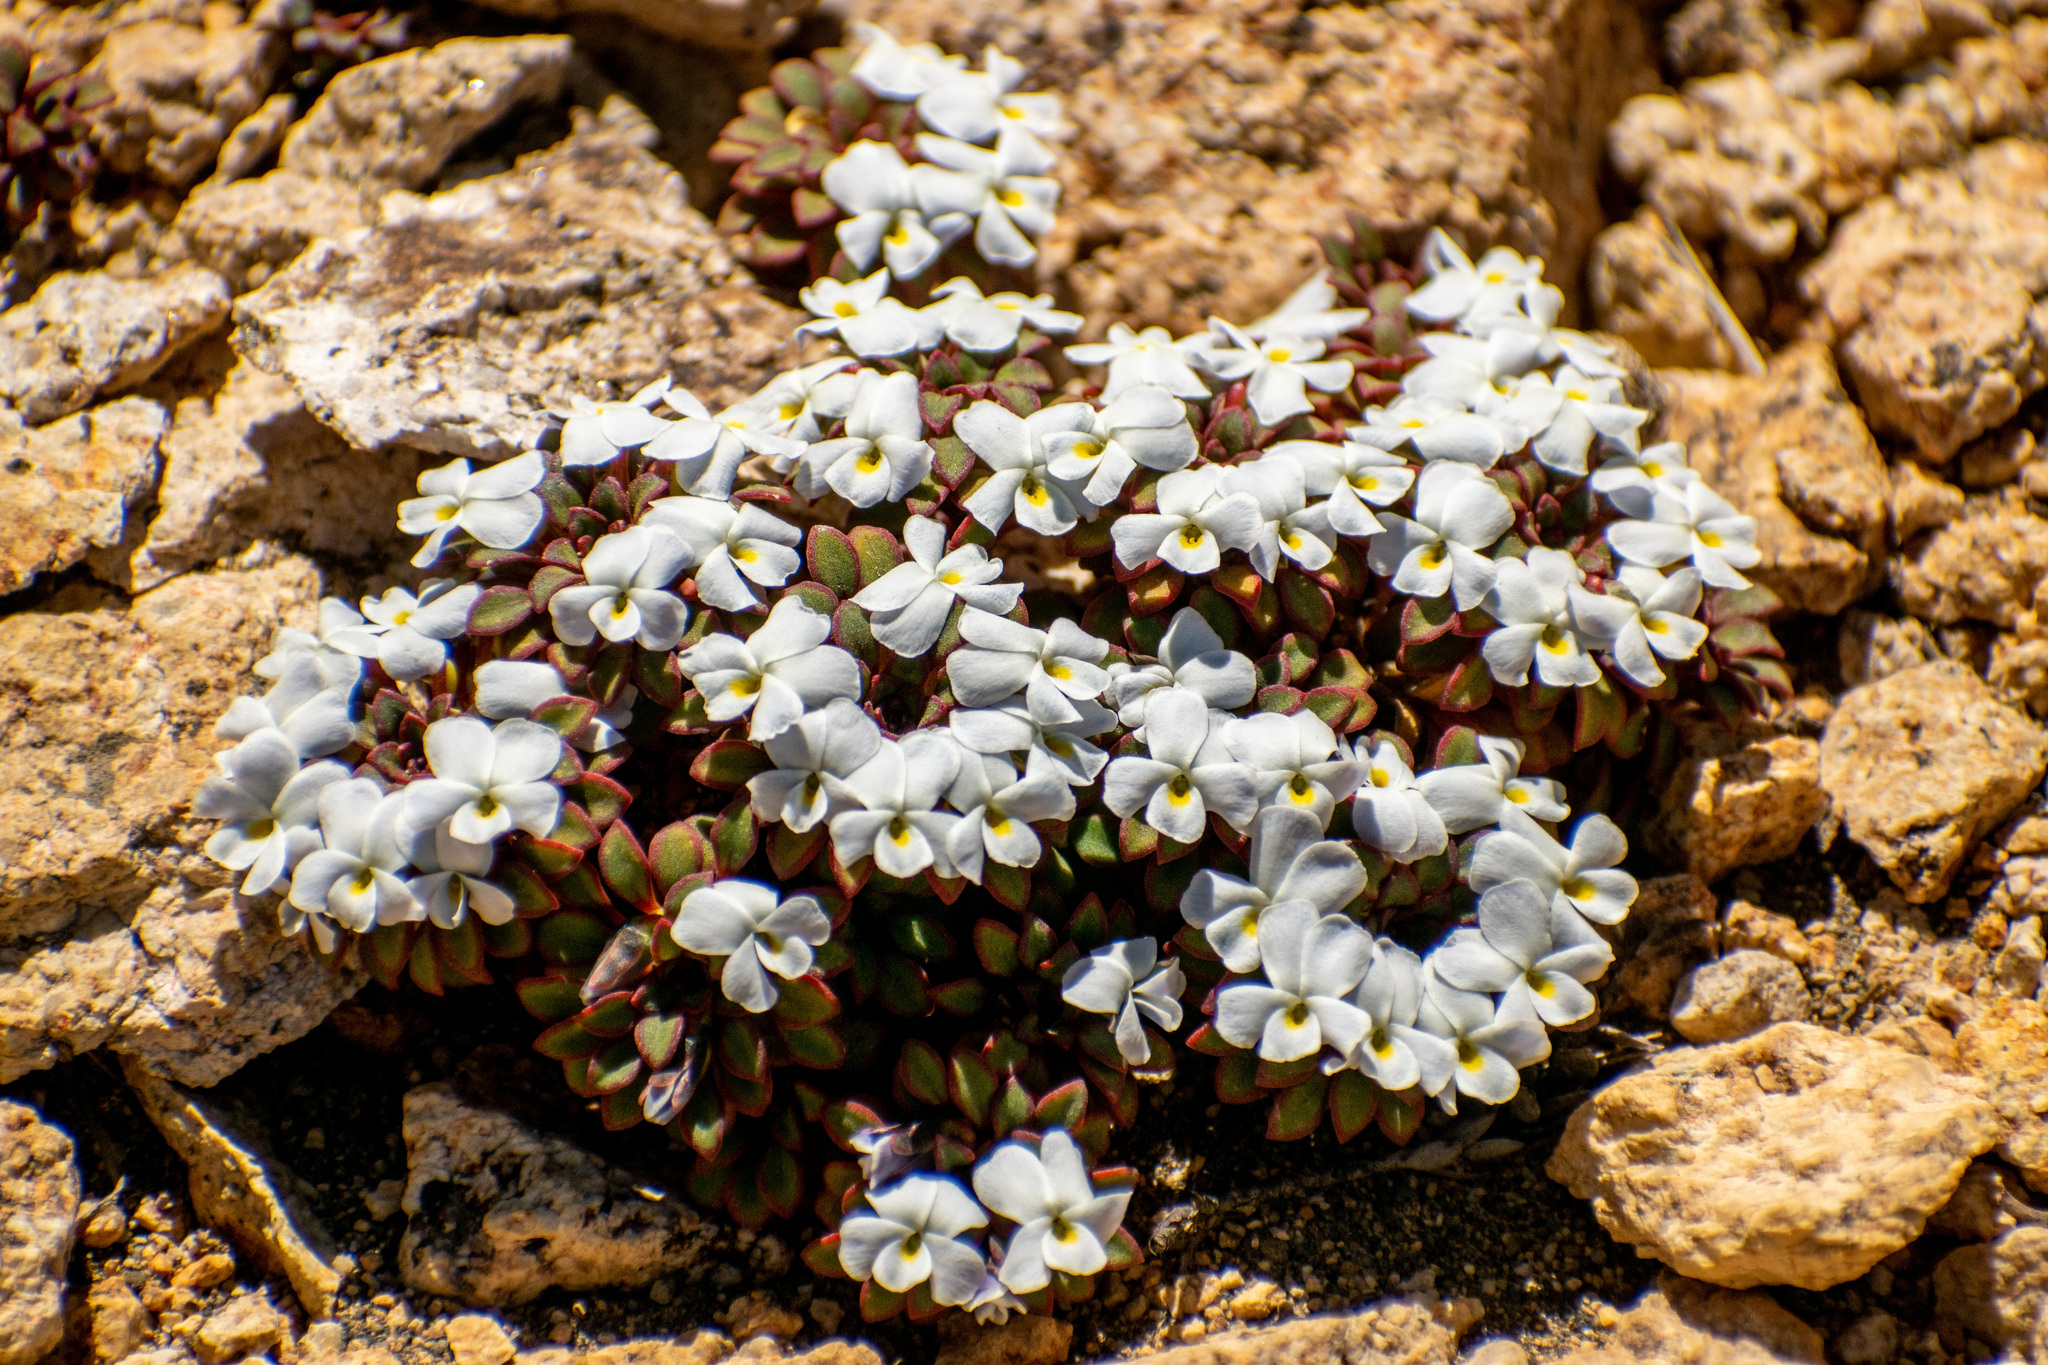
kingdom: Plantae
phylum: Tracheophyta
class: Magnoliopsida
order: Malpighiales
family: Violaceae
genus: Viola
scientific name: Viola sacculus
